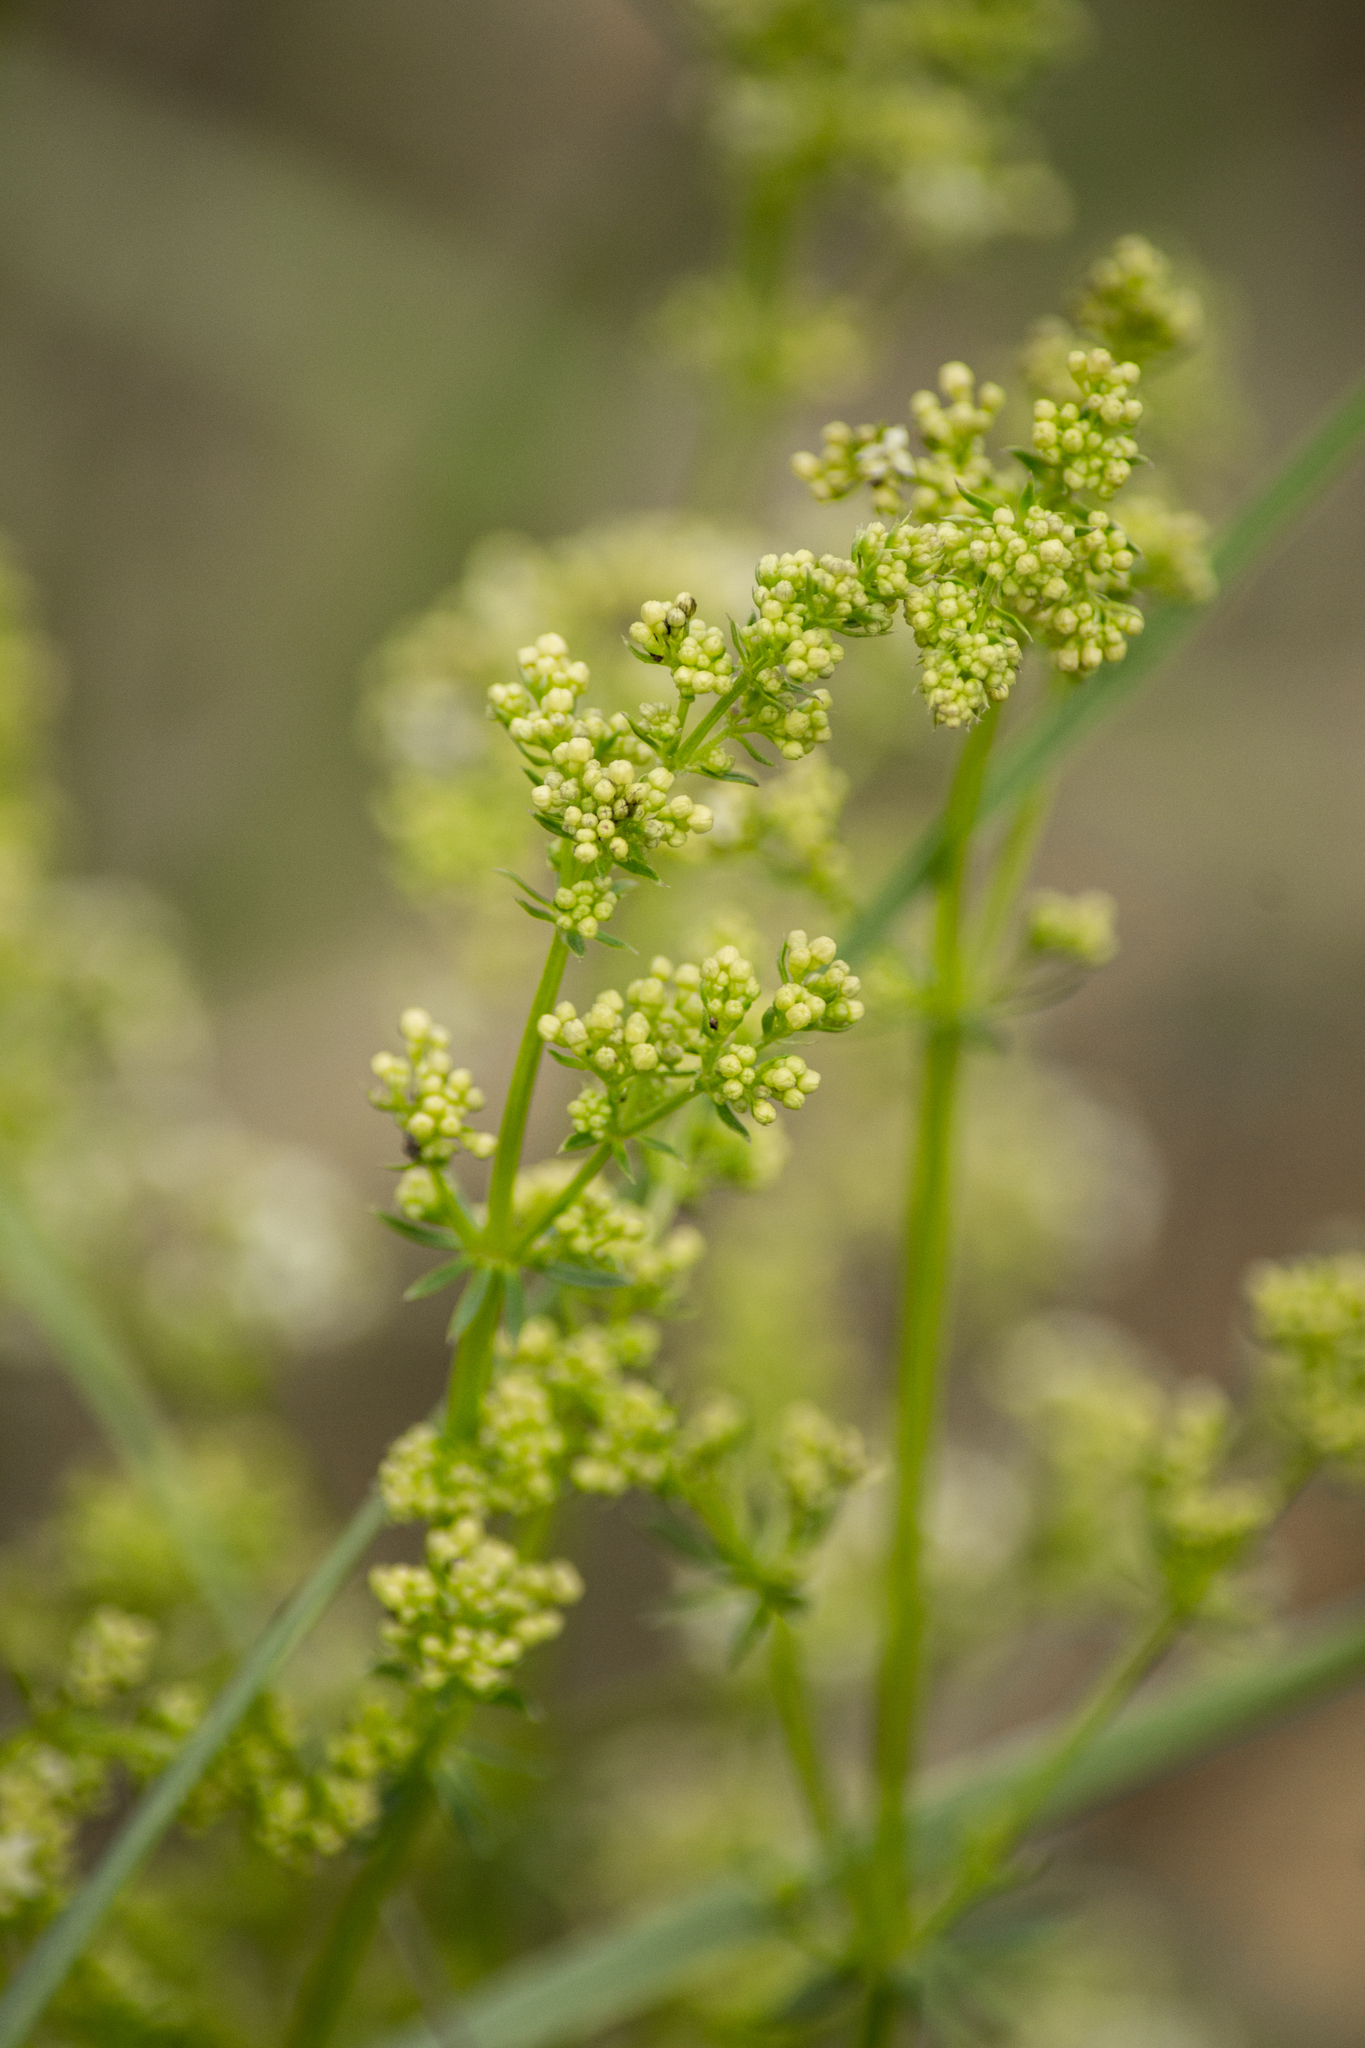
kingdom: Plantae
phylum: Tracheophyta
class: Magnoliopsida
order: Gentianales
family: Rubiaceae
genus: Galium
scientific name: Galium mollugo
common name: Hedge bedstraw
